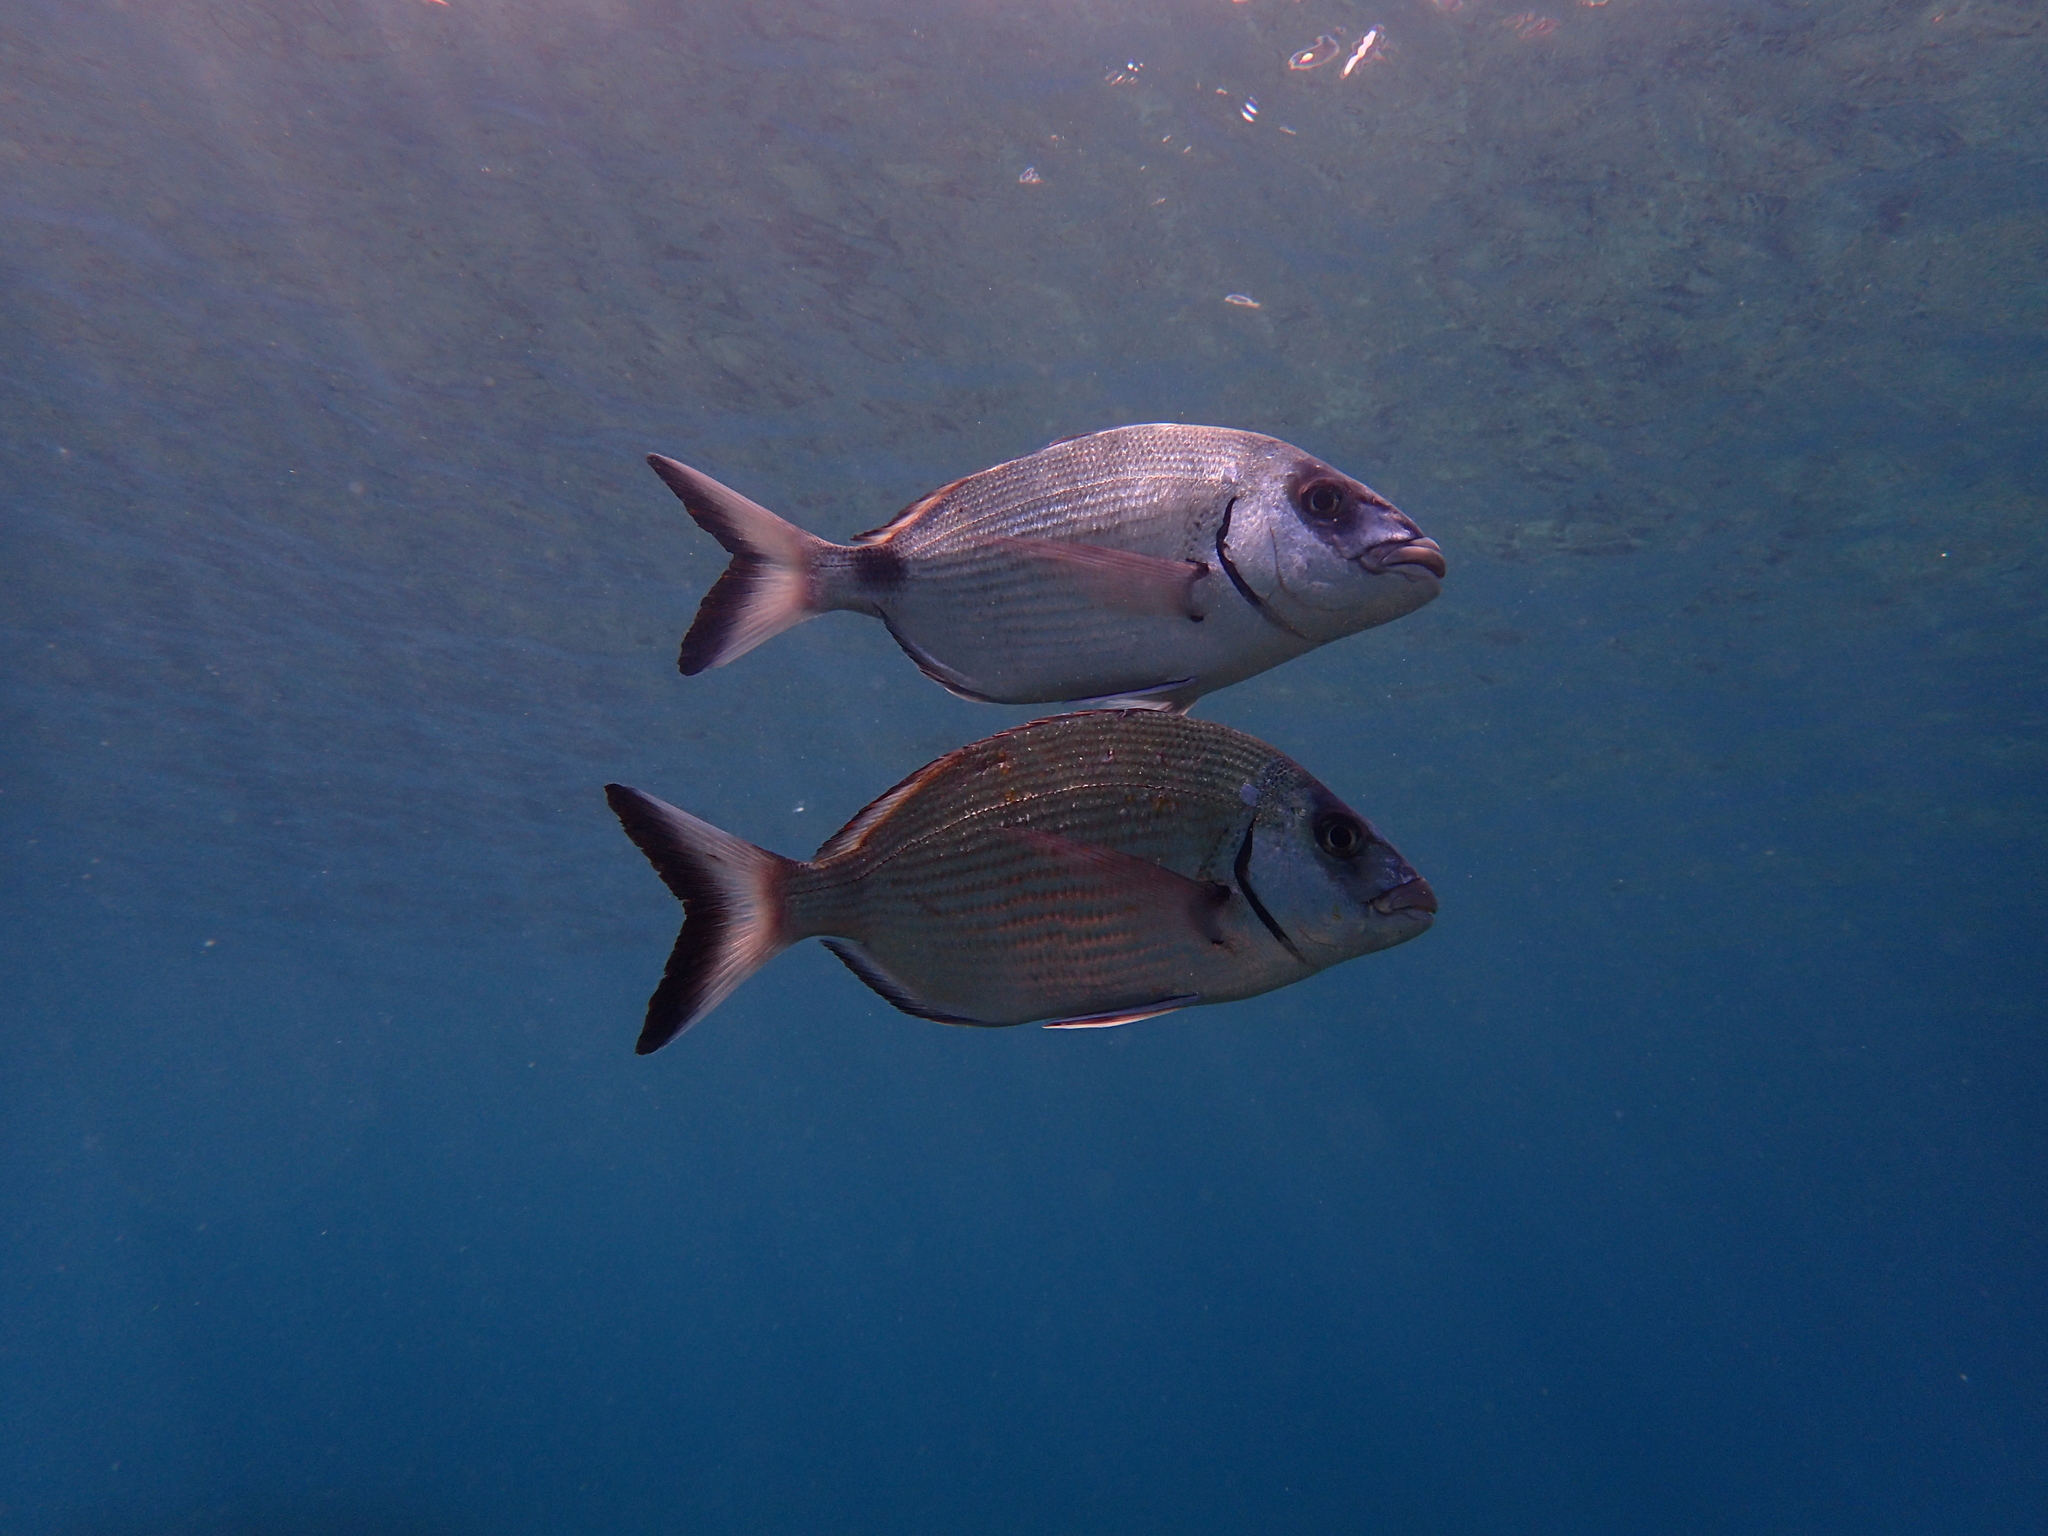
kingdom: Animalia
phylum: Chordata
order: Perciformes
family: Sparidae
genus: Diplodus
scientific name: Diplodus sargus
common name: White seabream
